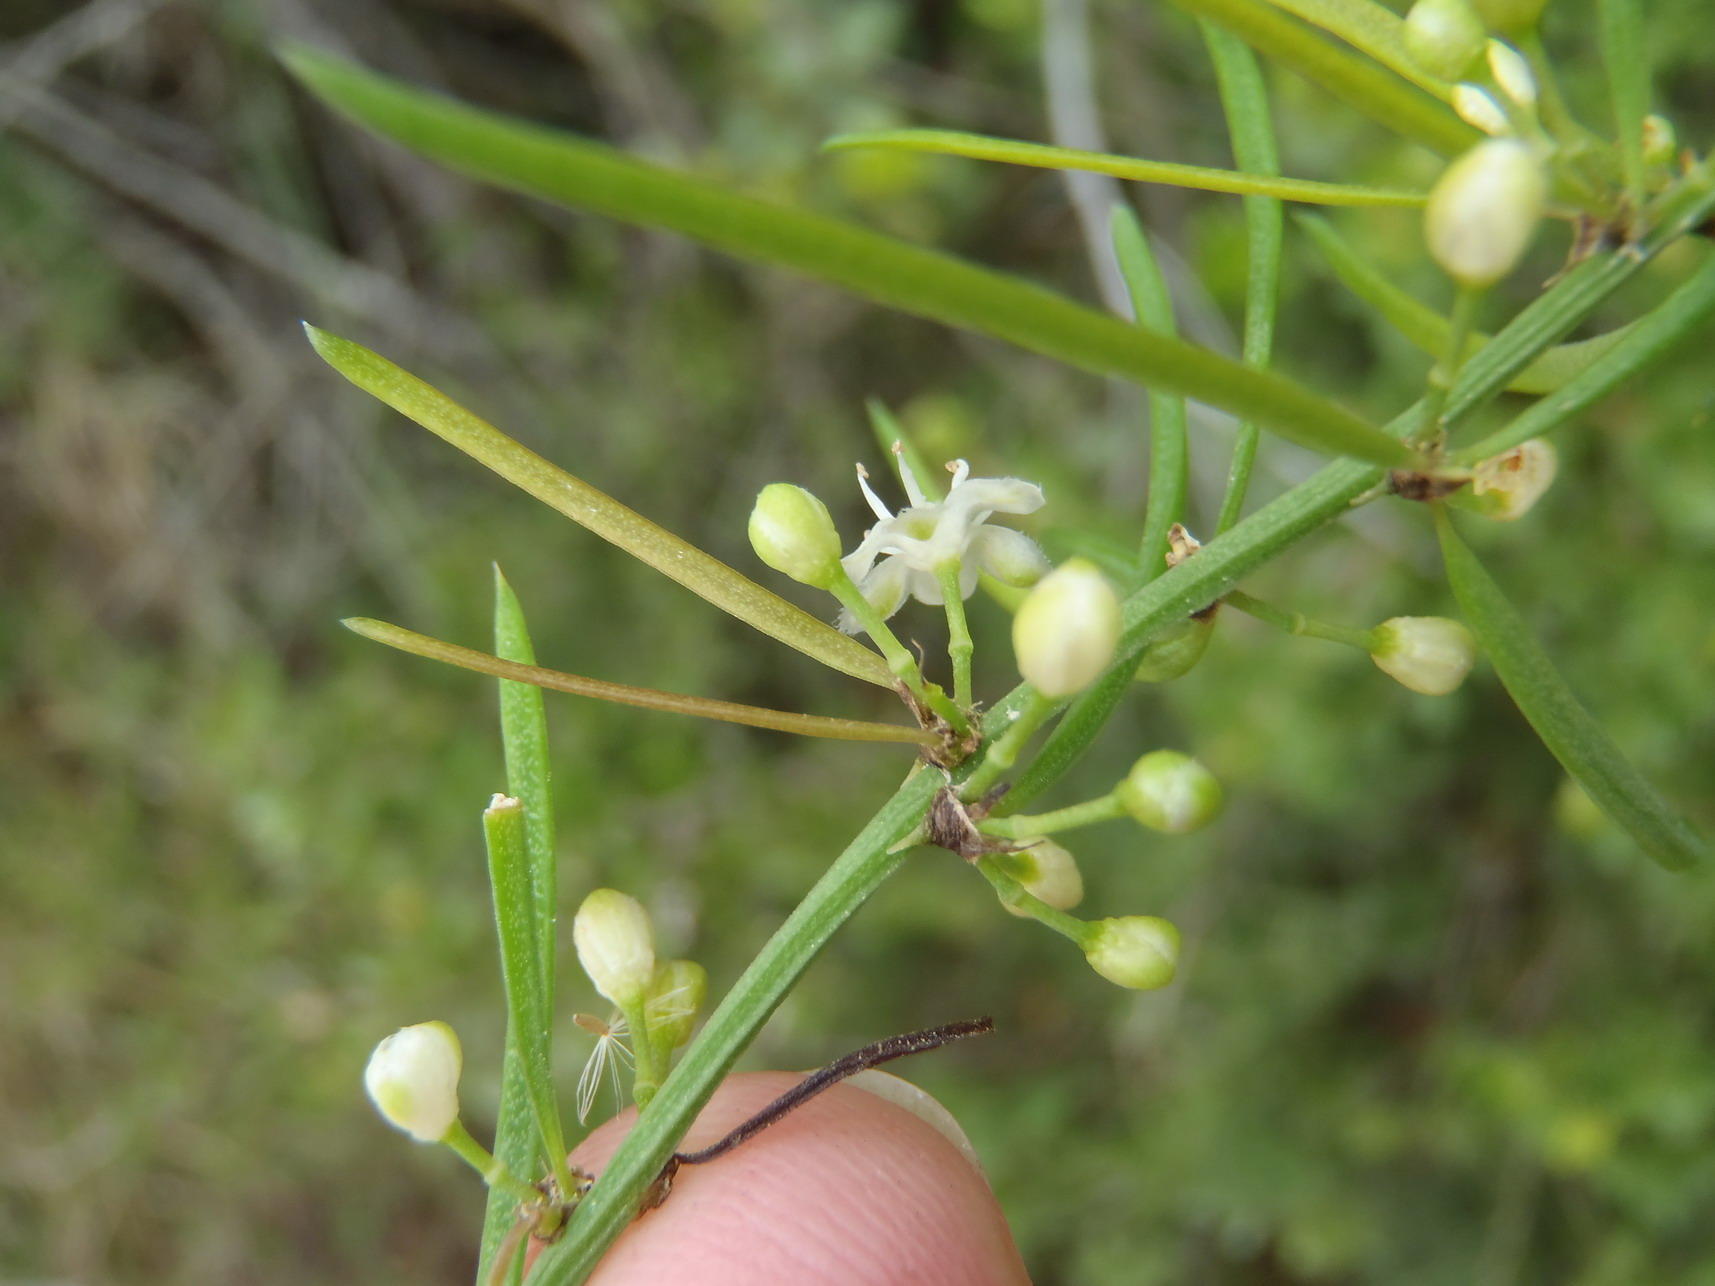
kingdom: Plantae
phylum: Tracheophyta
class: Liliopsida
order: Asparagales
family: Asparagaceae
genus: Asparagus
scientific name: Asparagus aethiopicus
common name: Sprenger's asparagus fern
